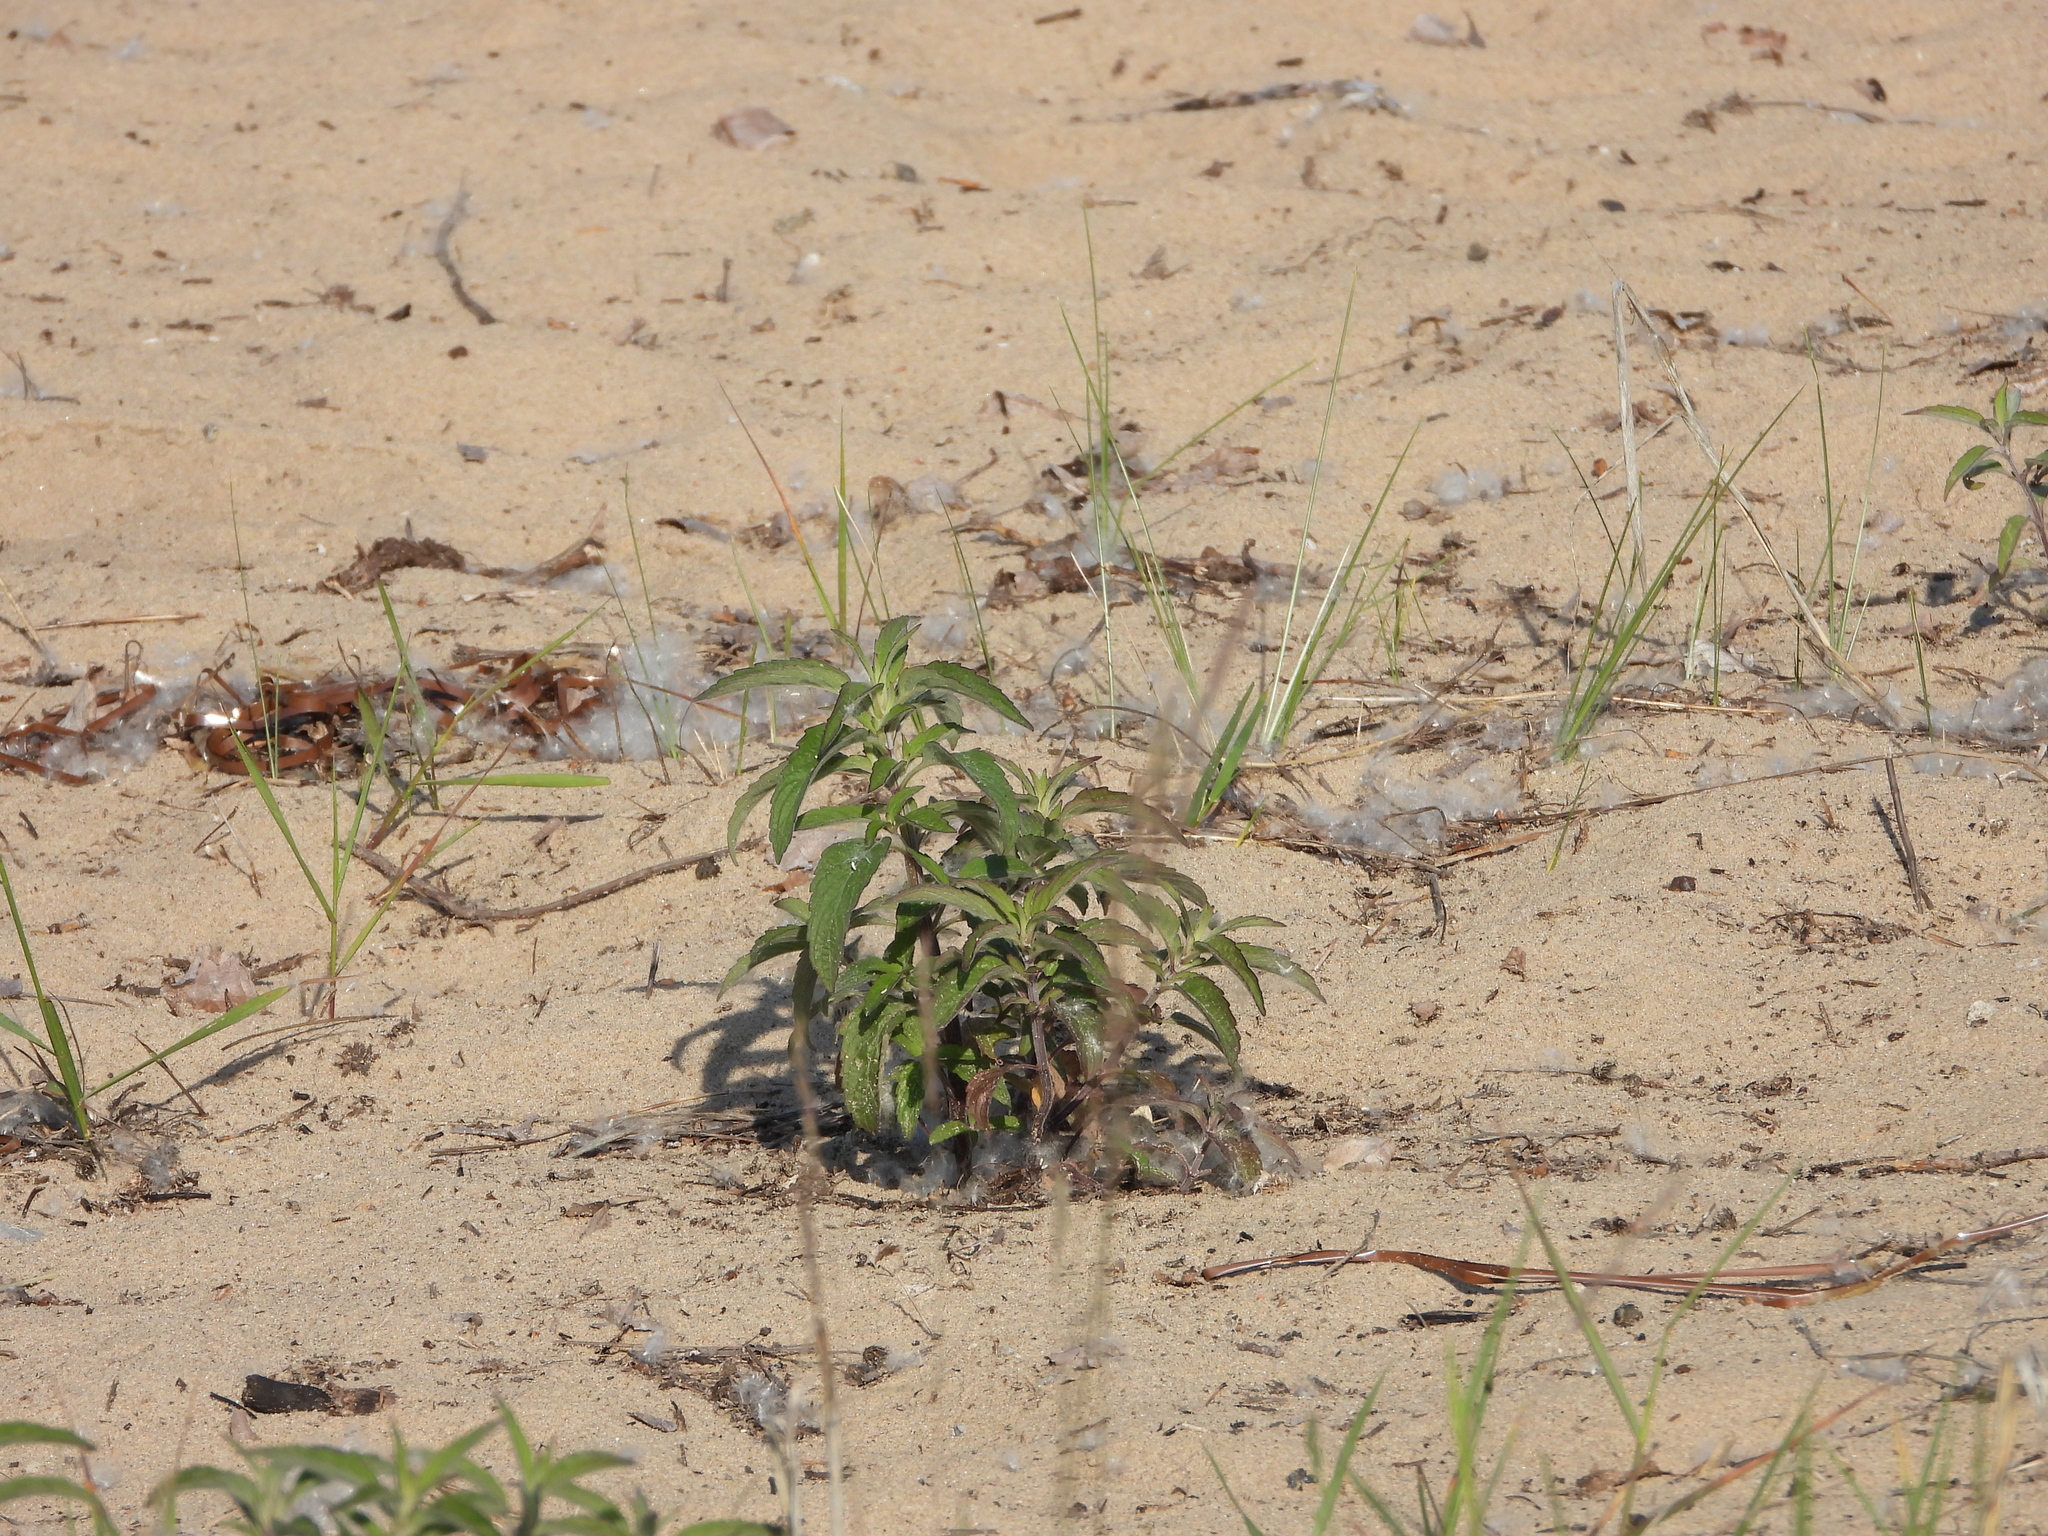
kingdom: Plantae
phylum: Tracheophyta
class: Magnoliopsida
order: Lamiales
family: Lamiaceae
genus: Monarda
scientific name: Monarda punctata
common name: Dotted monarda
